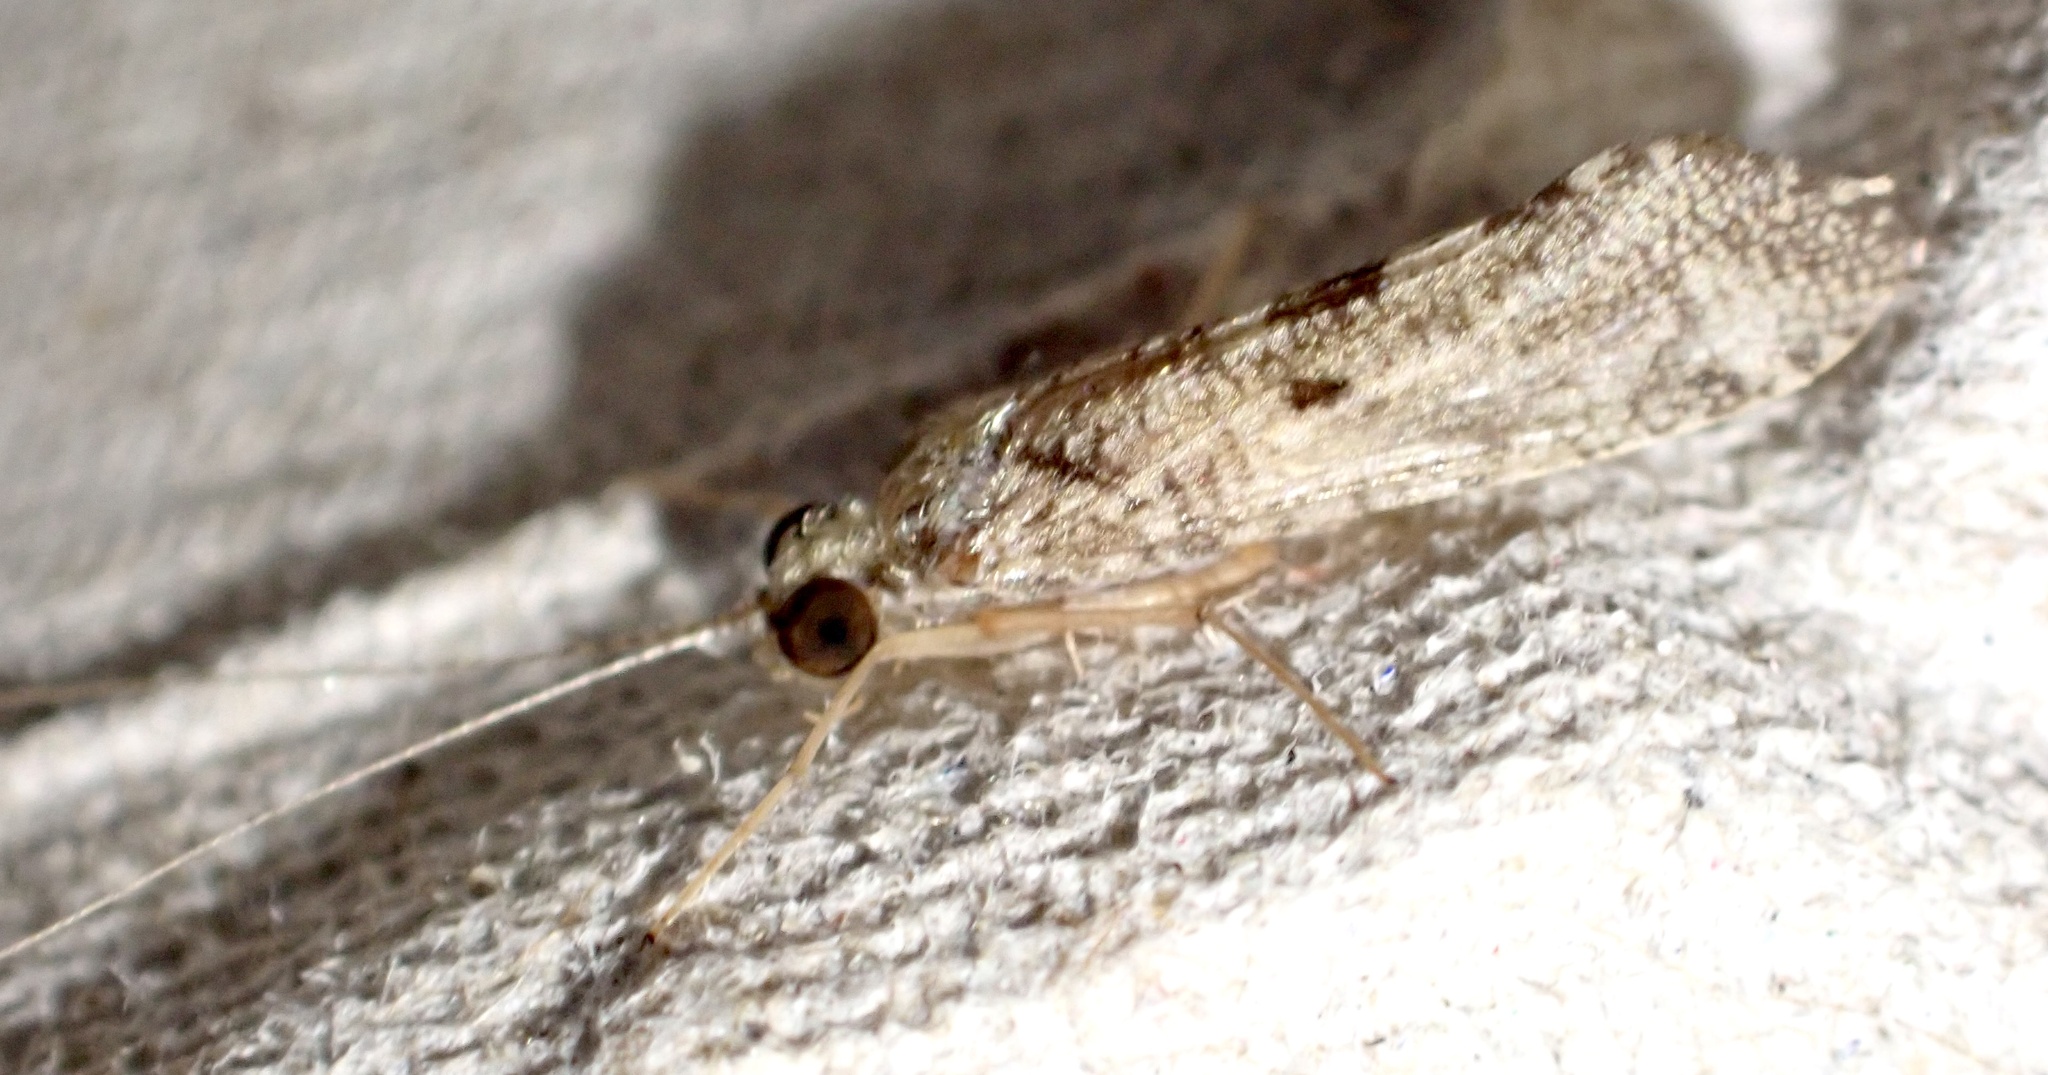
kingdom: Animalia
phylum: Arthropoda
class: Insecta
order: Trichoptera
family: Hydropsychidae
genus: Hydropsyche
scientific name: Hydropsyche exocellata
